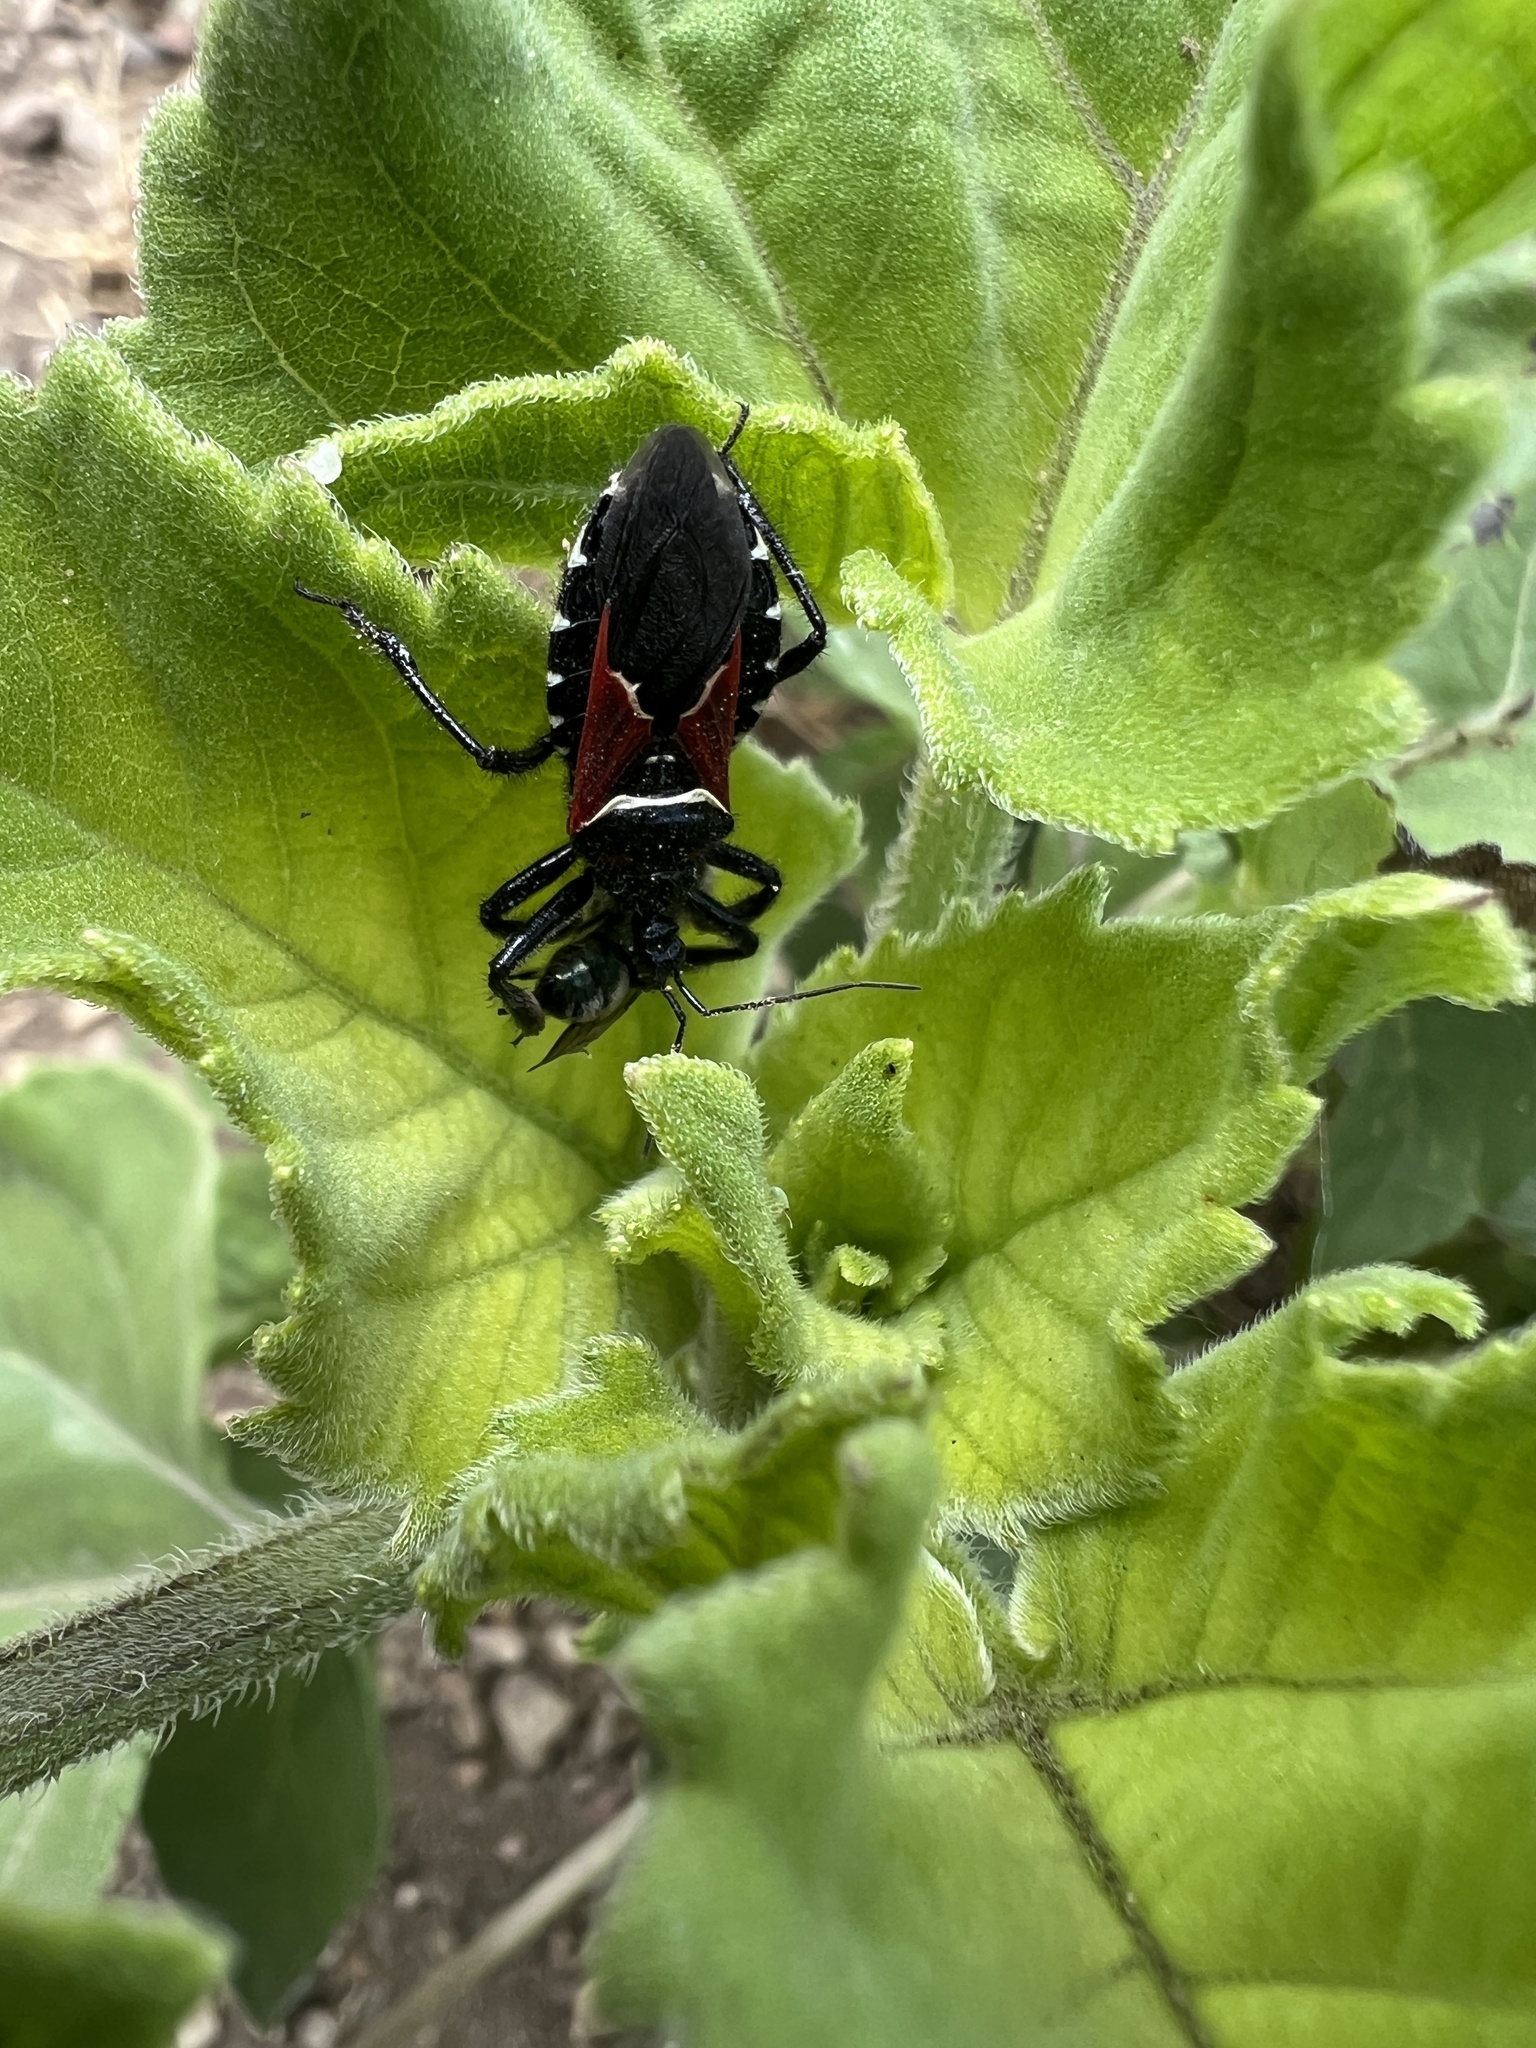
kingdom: Animalia
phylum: Arthropoda
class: Insecta
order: Hemiptera
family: Reduviidae
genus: Apiomerus
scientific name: Apiomerus montanus
